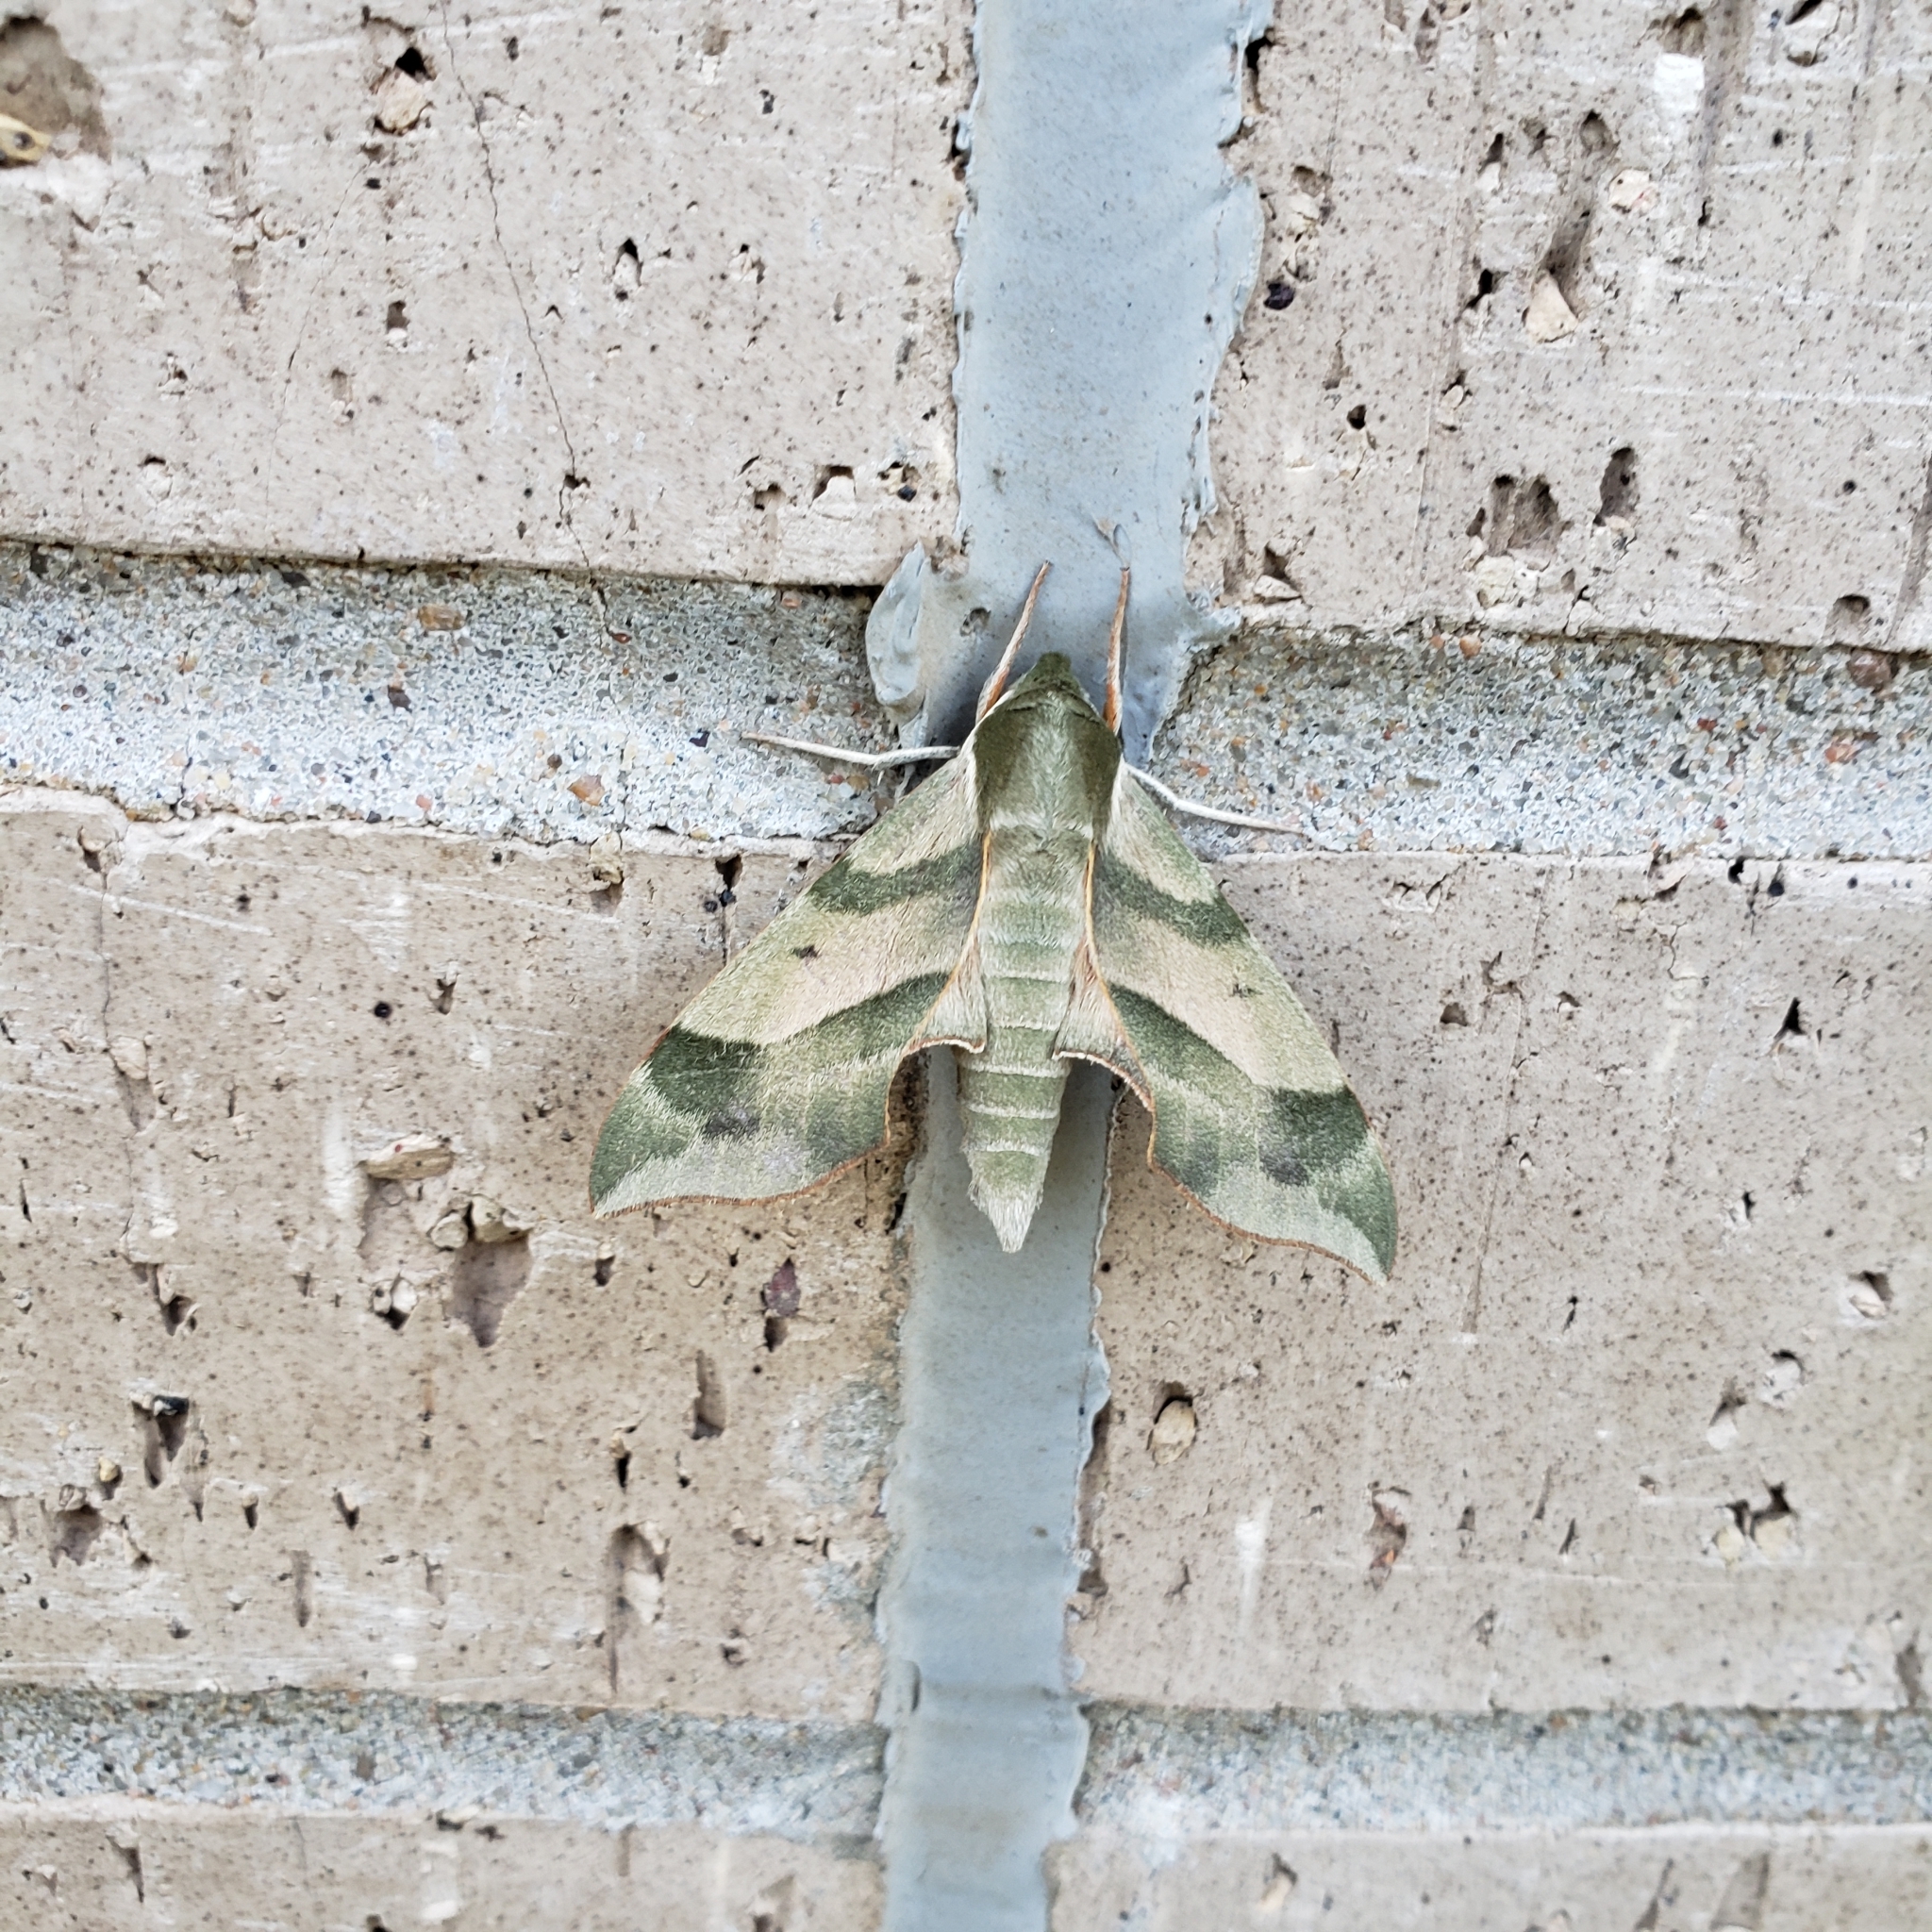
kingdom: Animalia
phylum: Arthropoda
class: Insecta
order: Lepidoptera
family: Sphingidae
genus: Darapsa
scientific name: Darapsa myron
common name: Hog sphinx
